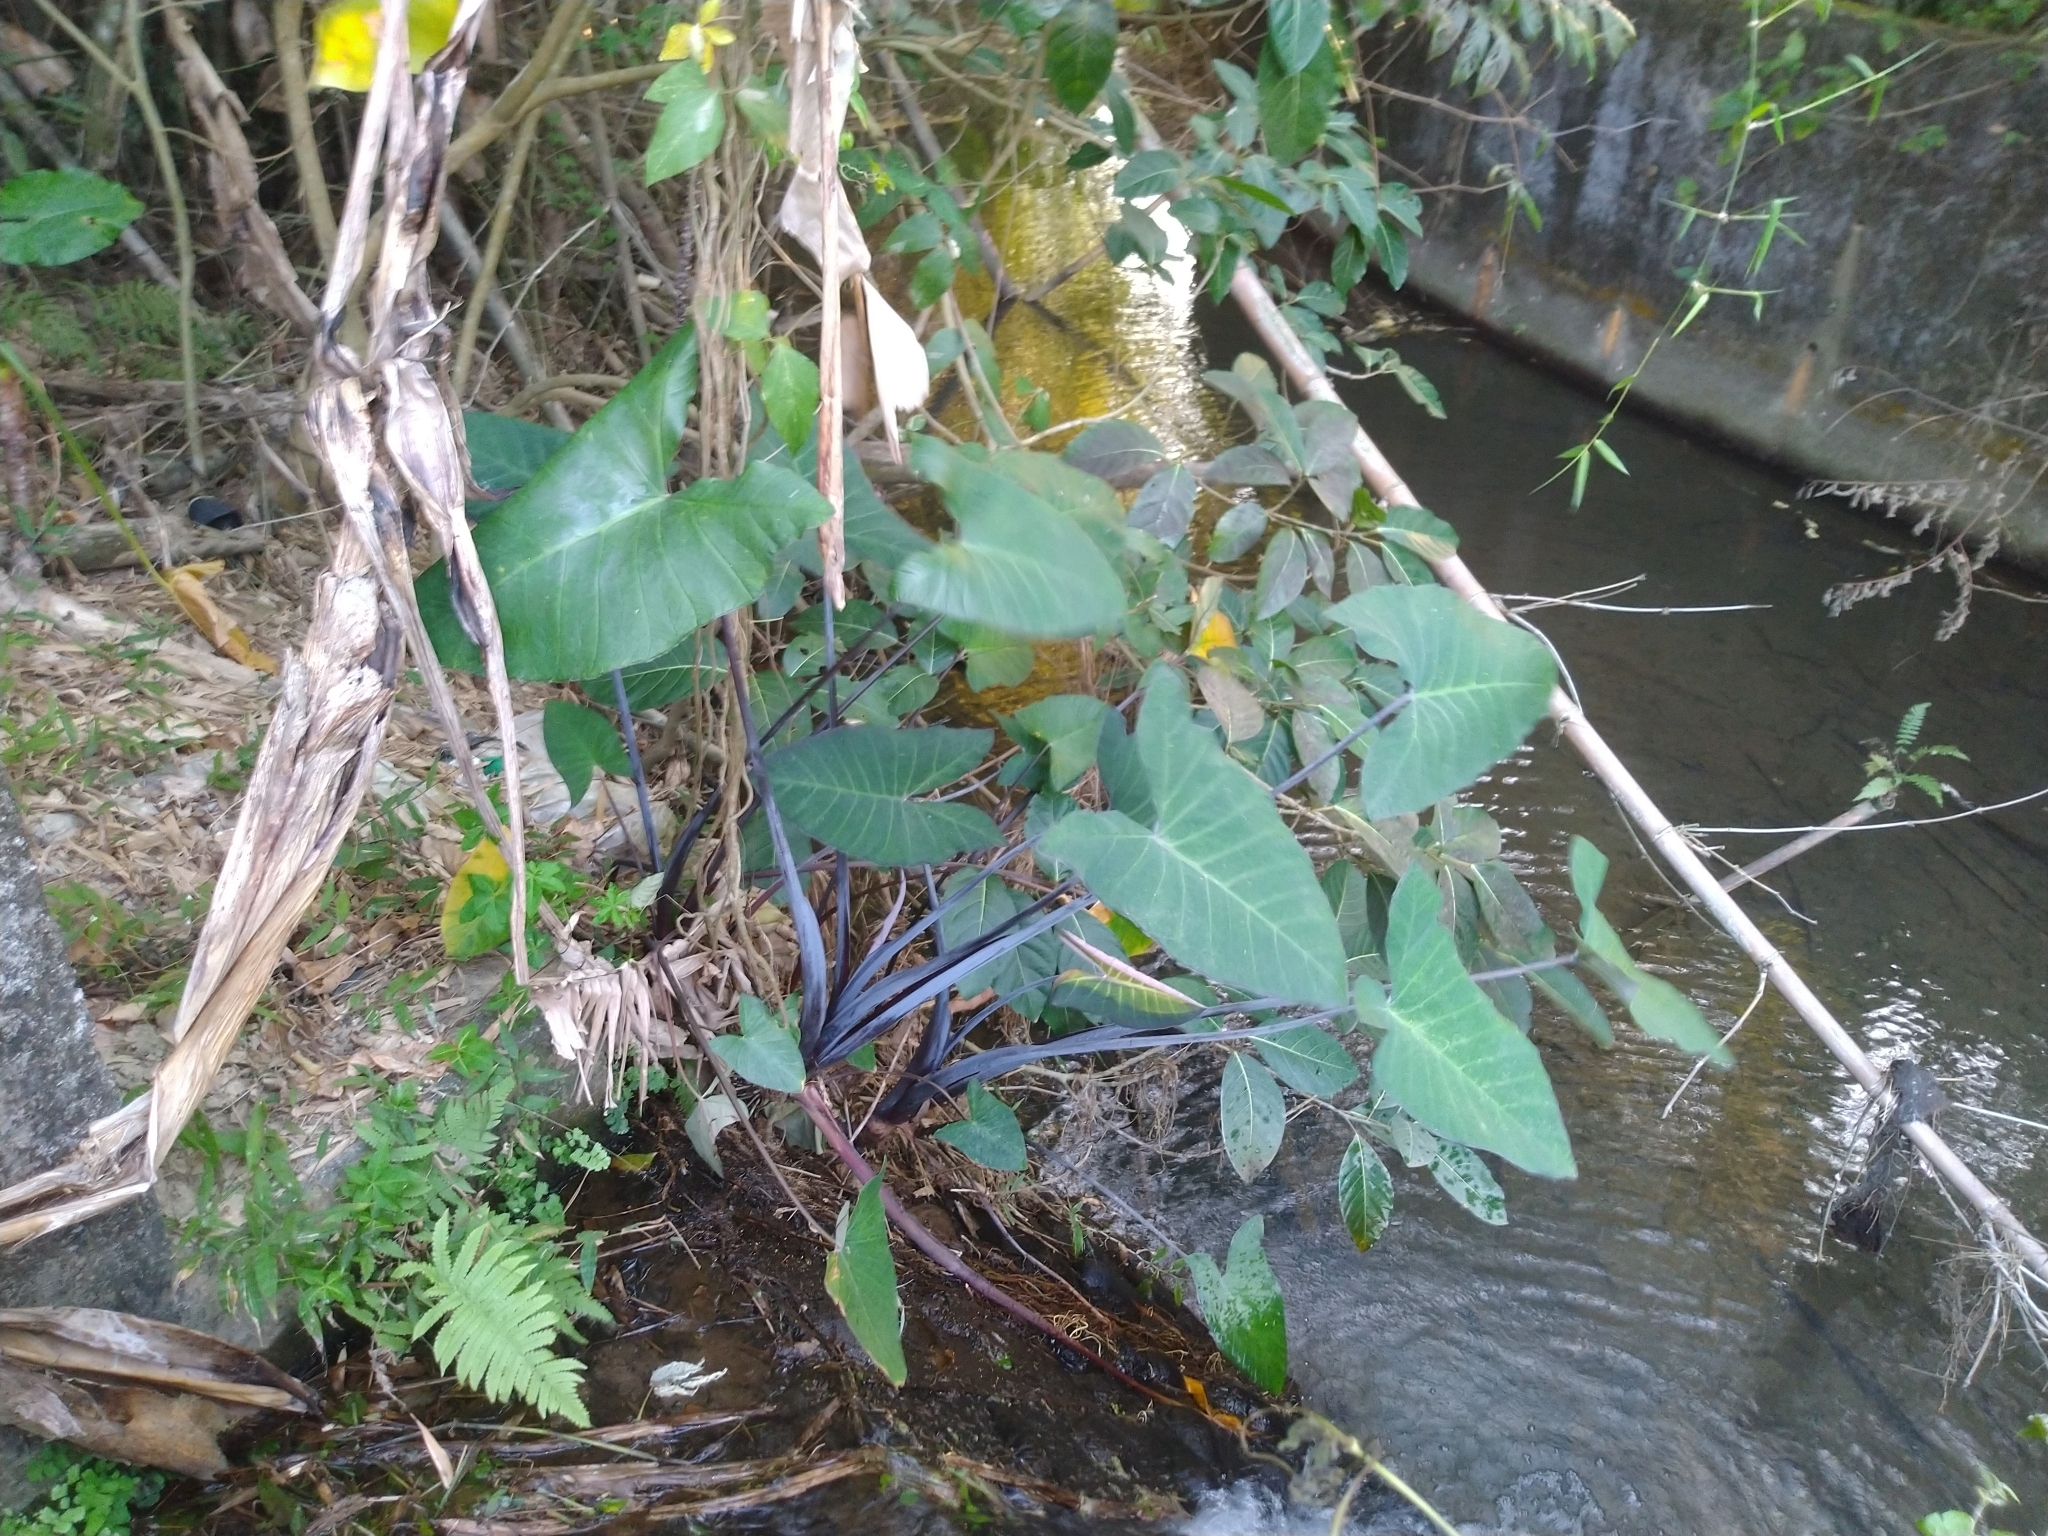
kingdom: Plantae
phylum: Tracheophyta
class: Liliopsida
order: Alismatales
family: Araceae
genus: Xanthosoma
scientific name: Xanthosoma sagittifolium
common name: Arrowleaf elephant's ear
